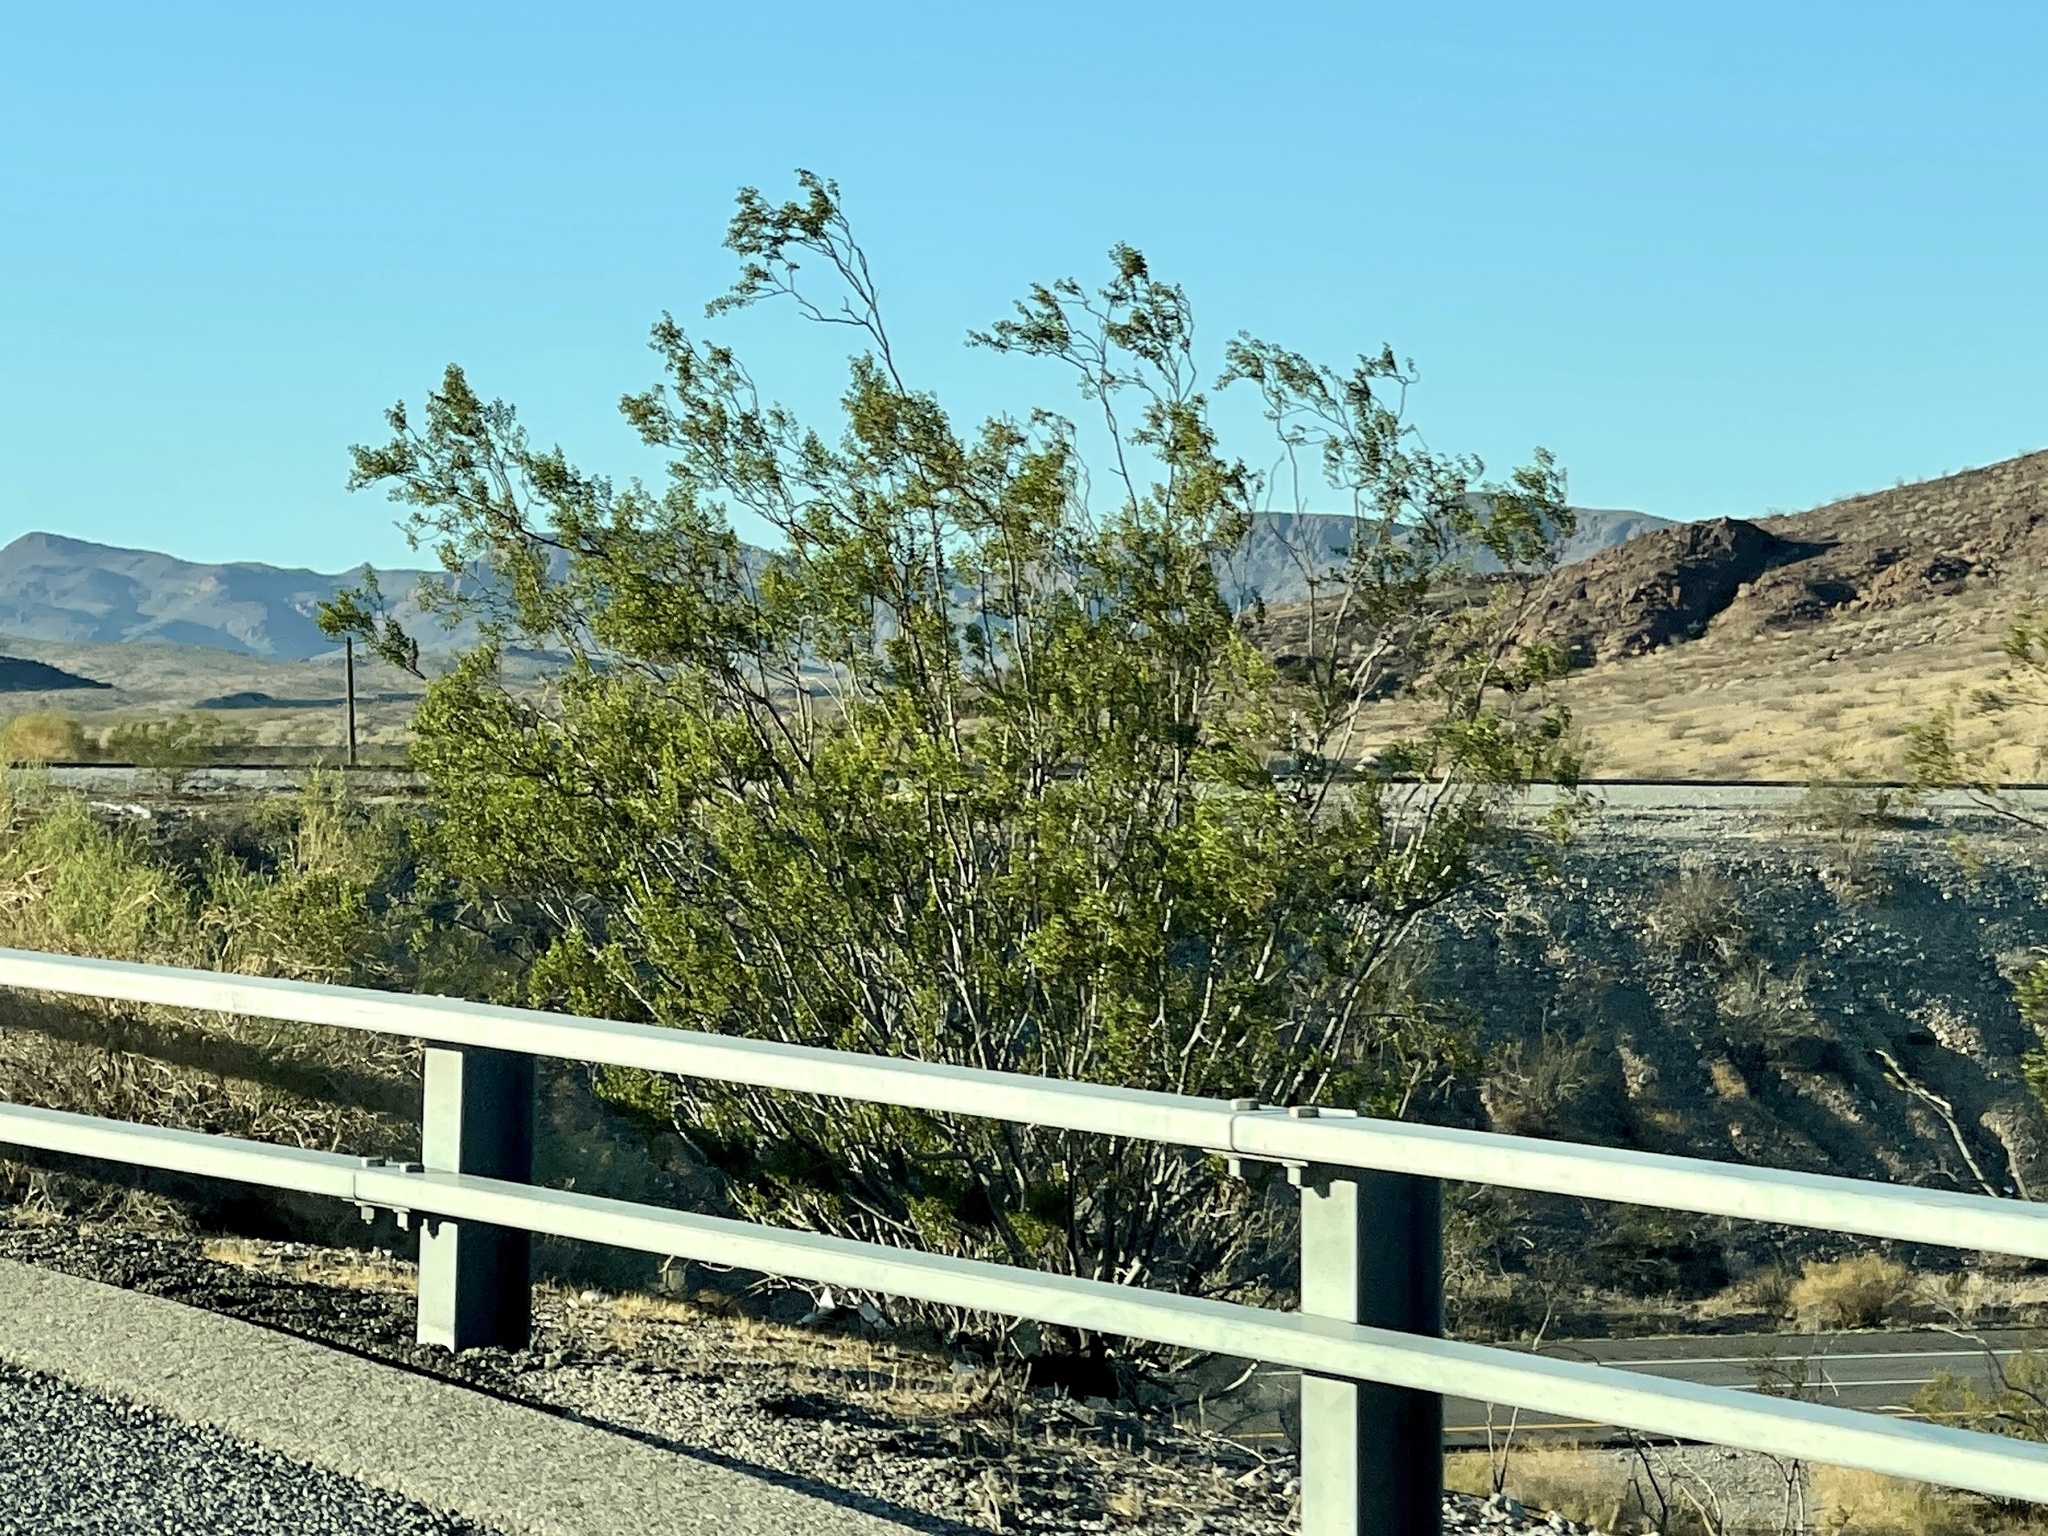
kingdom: Plantae
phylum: Tracheophyta
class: Magnoliopsida
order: Zygophyllales
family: Zygophyllaceae
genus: Larrea
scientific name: Larrea tridentata
